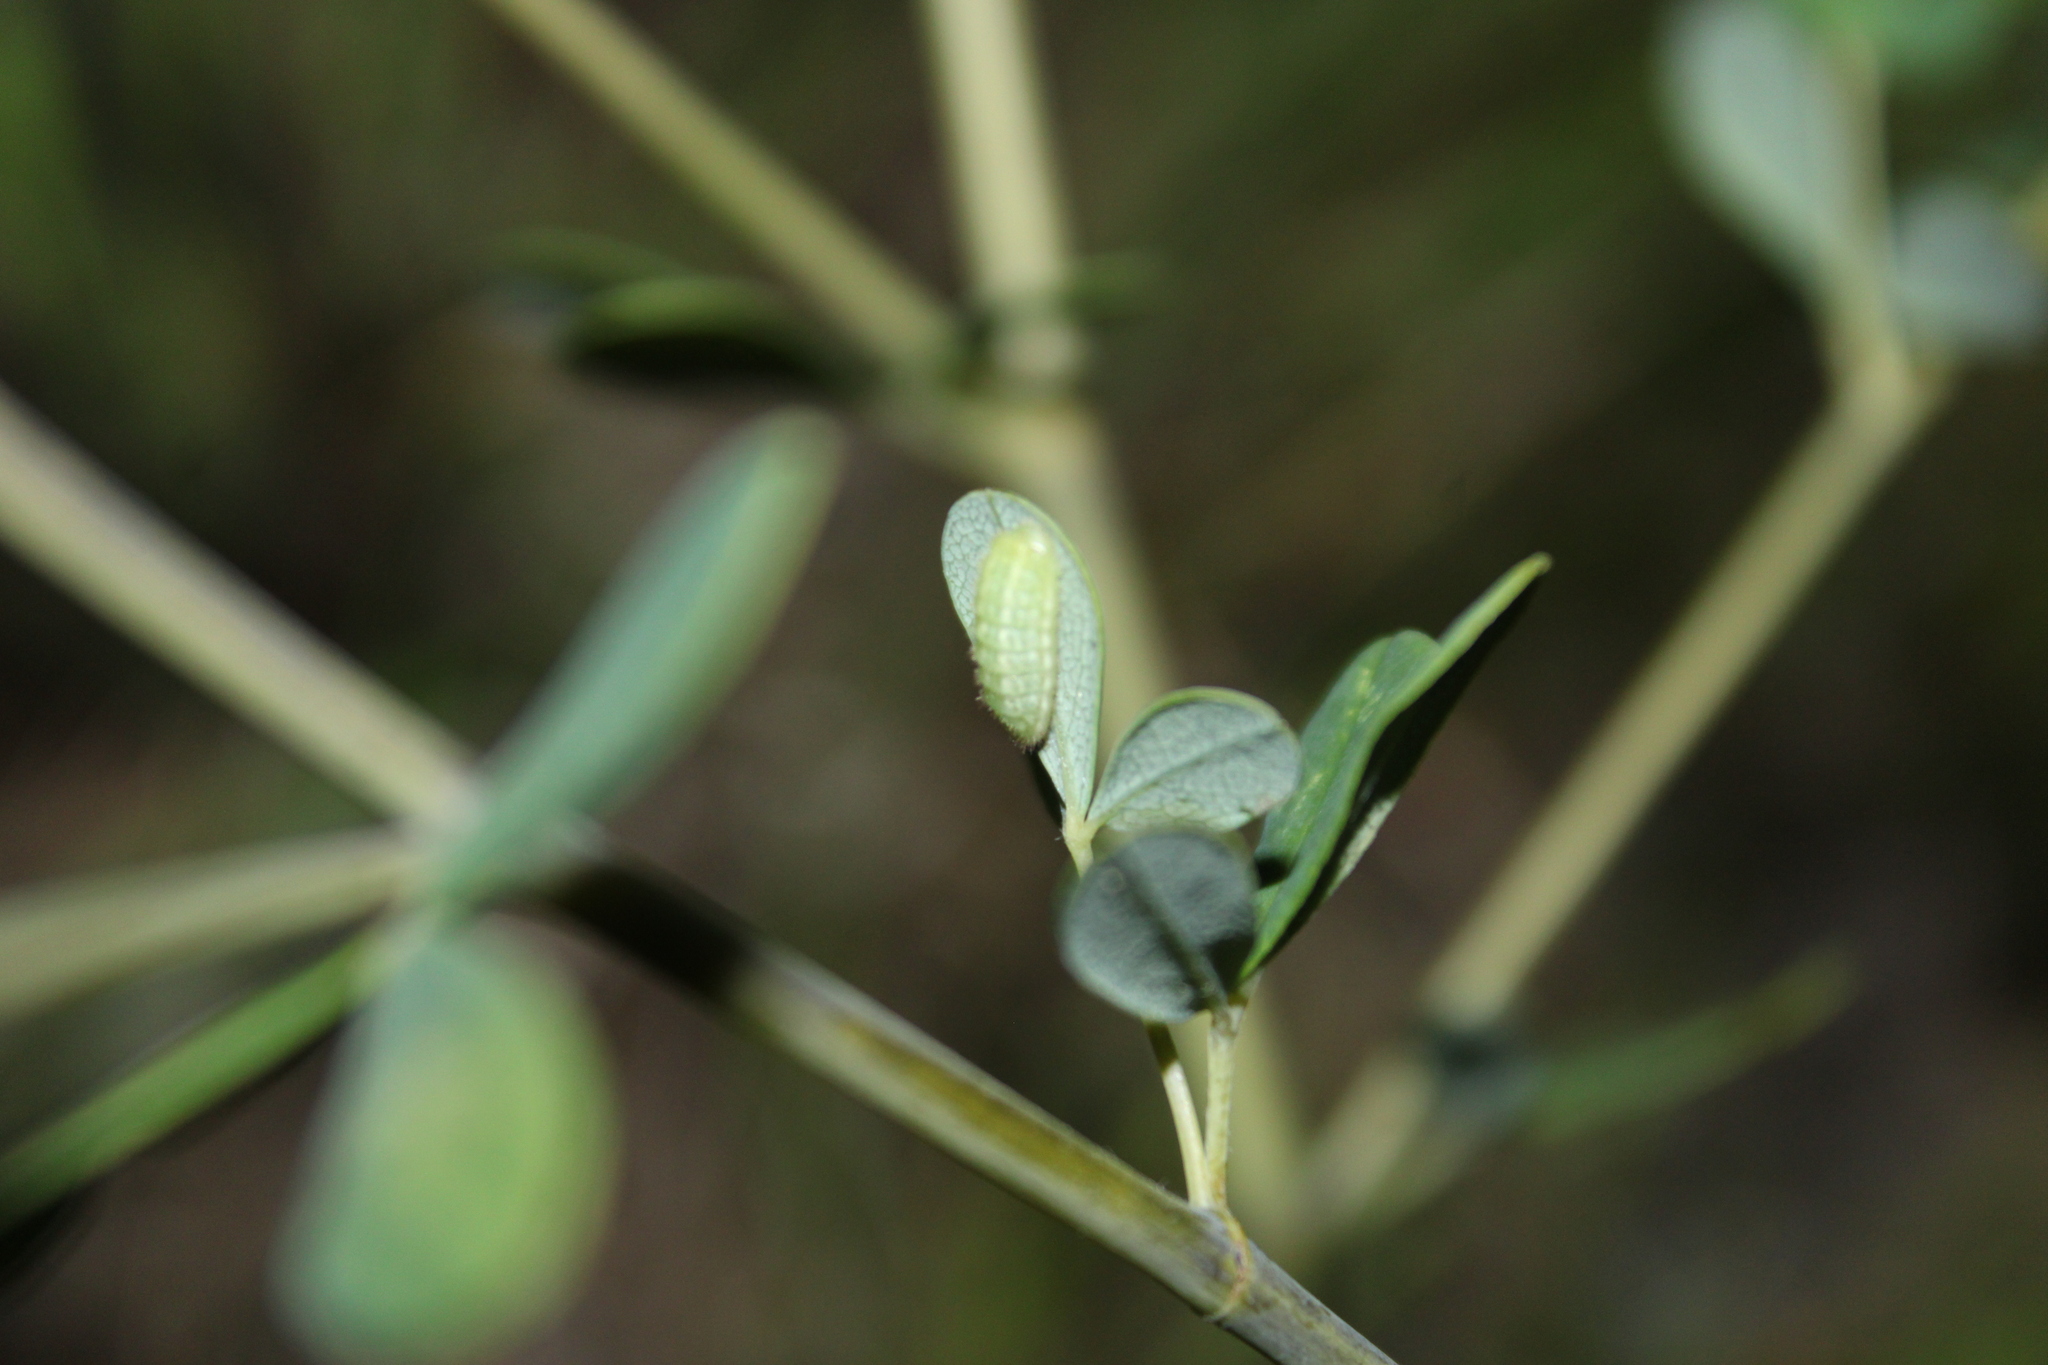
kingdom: Animalia
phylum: Arthropoda
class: Insecta
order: Lepidoptera
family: Lycaenidae
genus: Thecla
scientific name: Thecla irus
